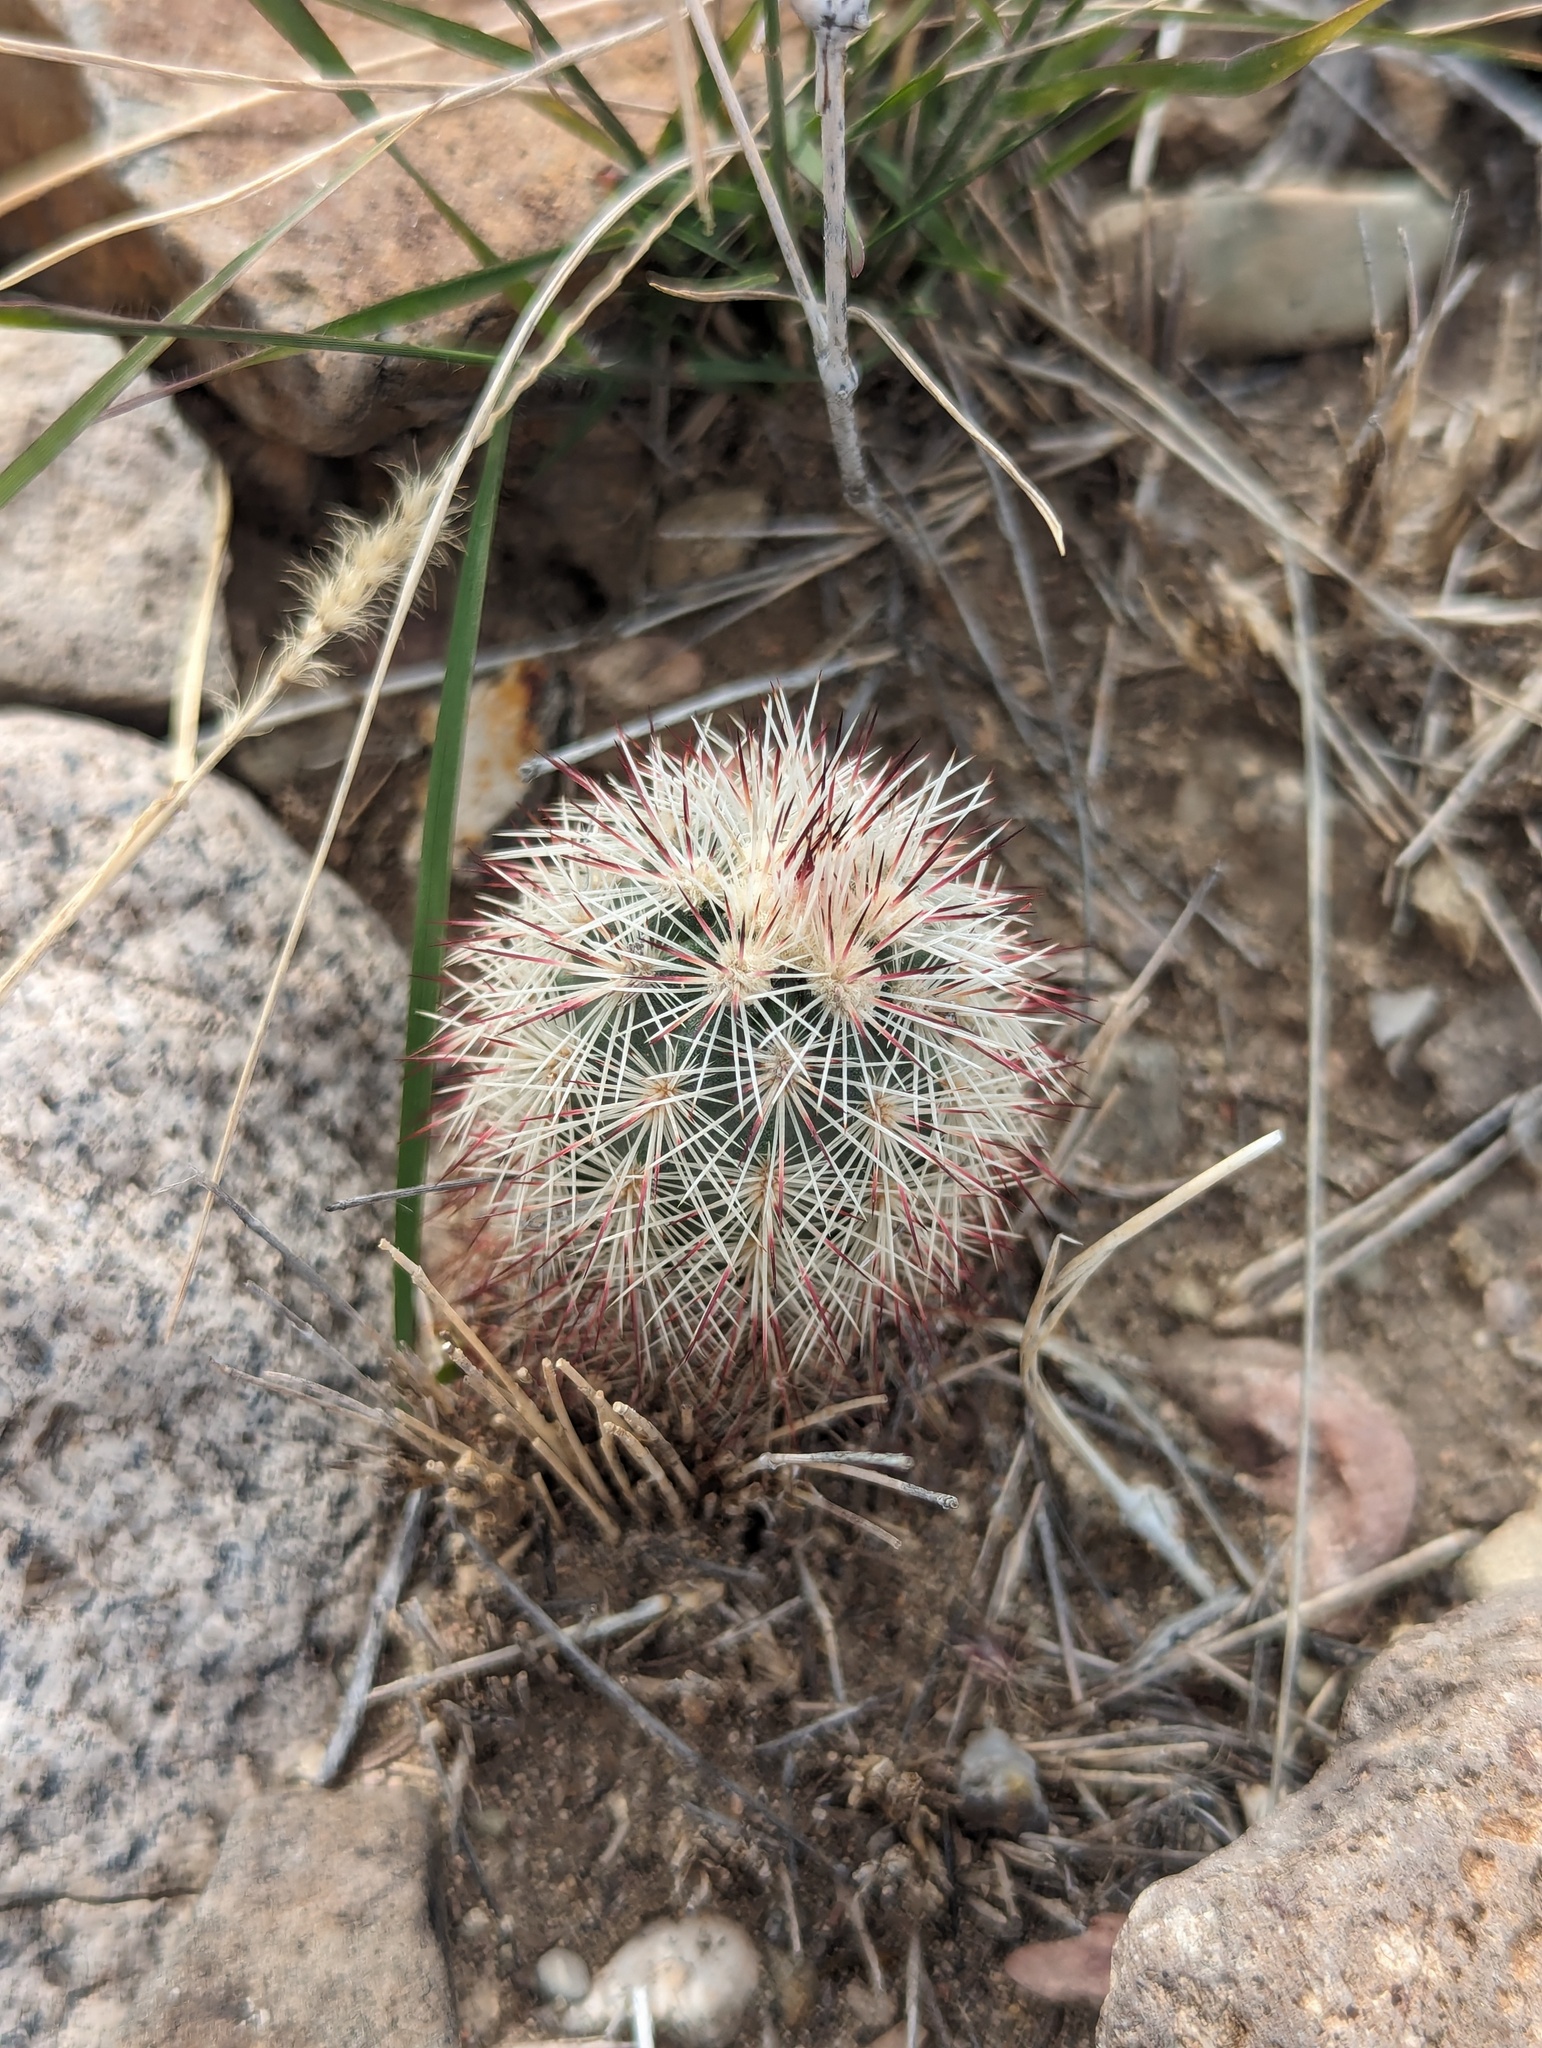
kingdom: Plantae
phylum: Tracheophyta
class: Magnoliopsida
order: Caryophyllales
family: Cactaceae
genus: Echinocereus
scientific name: Echinocereus dasyacanthus
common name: Spiny hedgehog cactus
